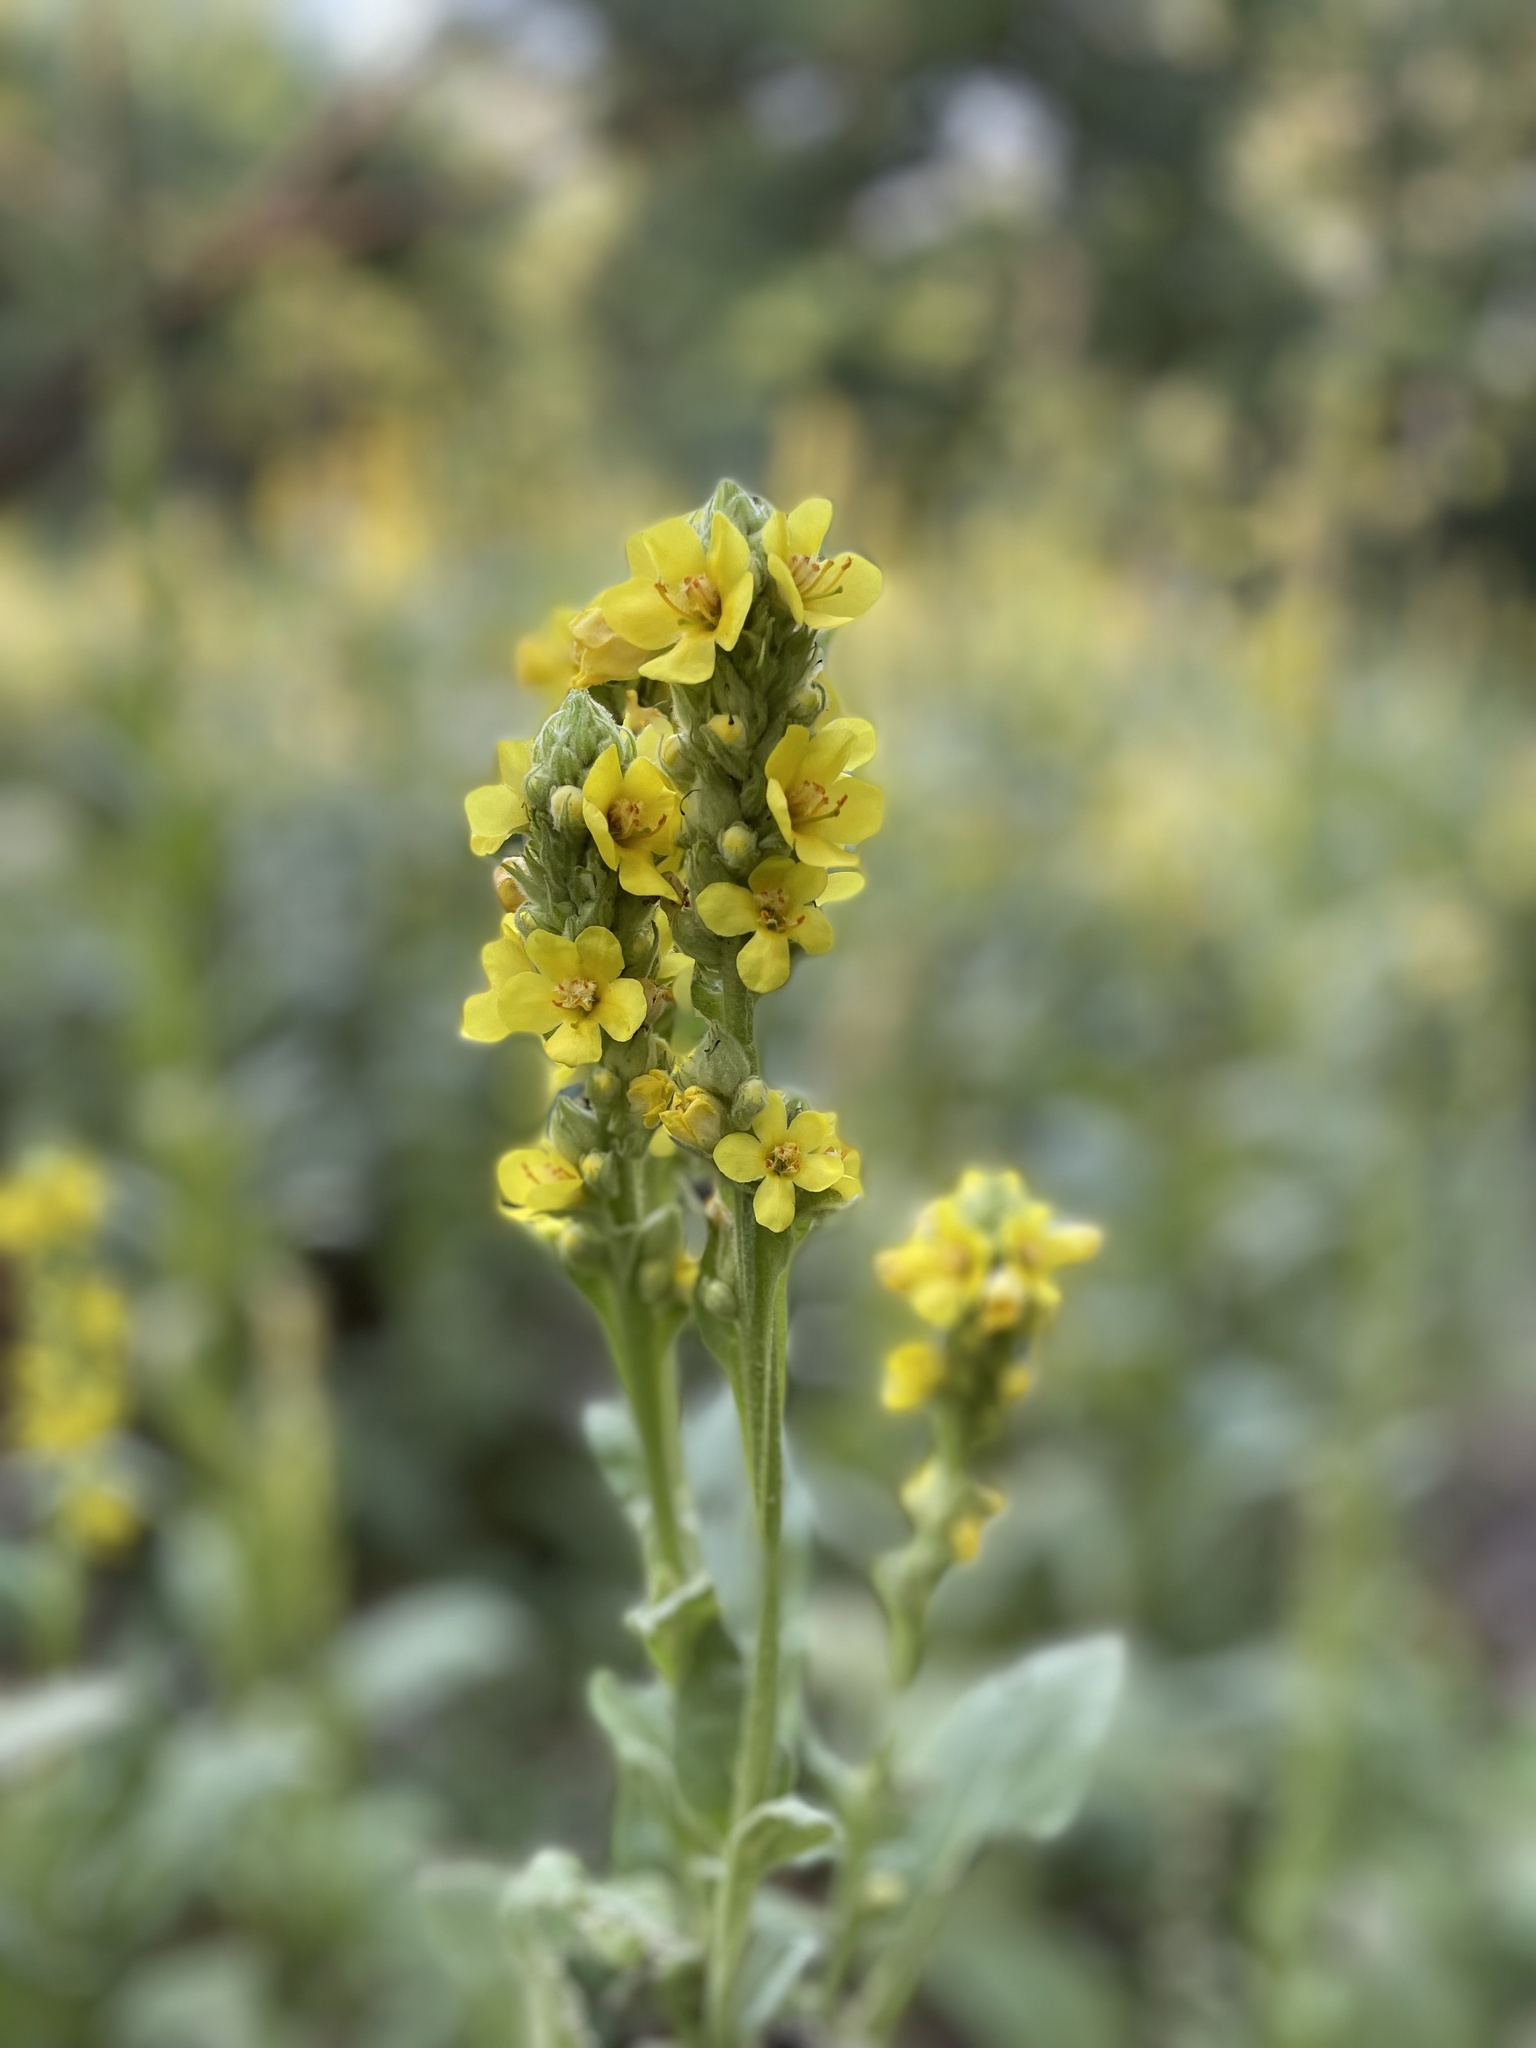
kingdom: Plantae
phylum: Tracheophyta
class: Magnoliopsida
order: Lamiales
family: Scrophulariaceae
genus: Verbascum
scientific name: Verbascum thapsus
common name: Common mullein
